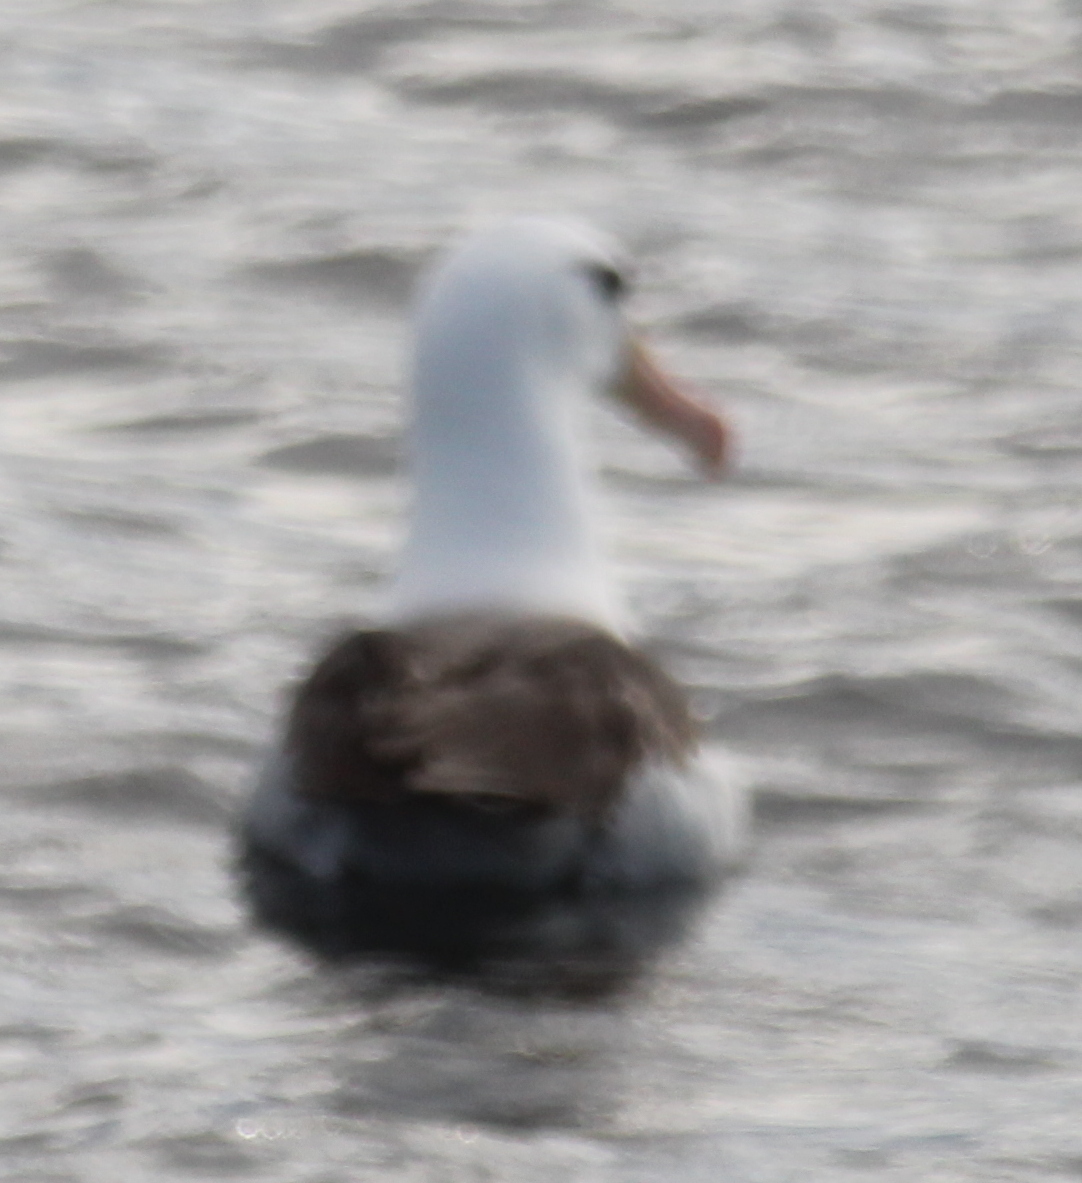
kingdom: Animalia
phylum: Chordata
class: Aves
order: Procellariiformes
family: Diomedeidae
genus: Thalassarche
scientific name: Thalassarche melanophris
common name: Black-browed albatross
